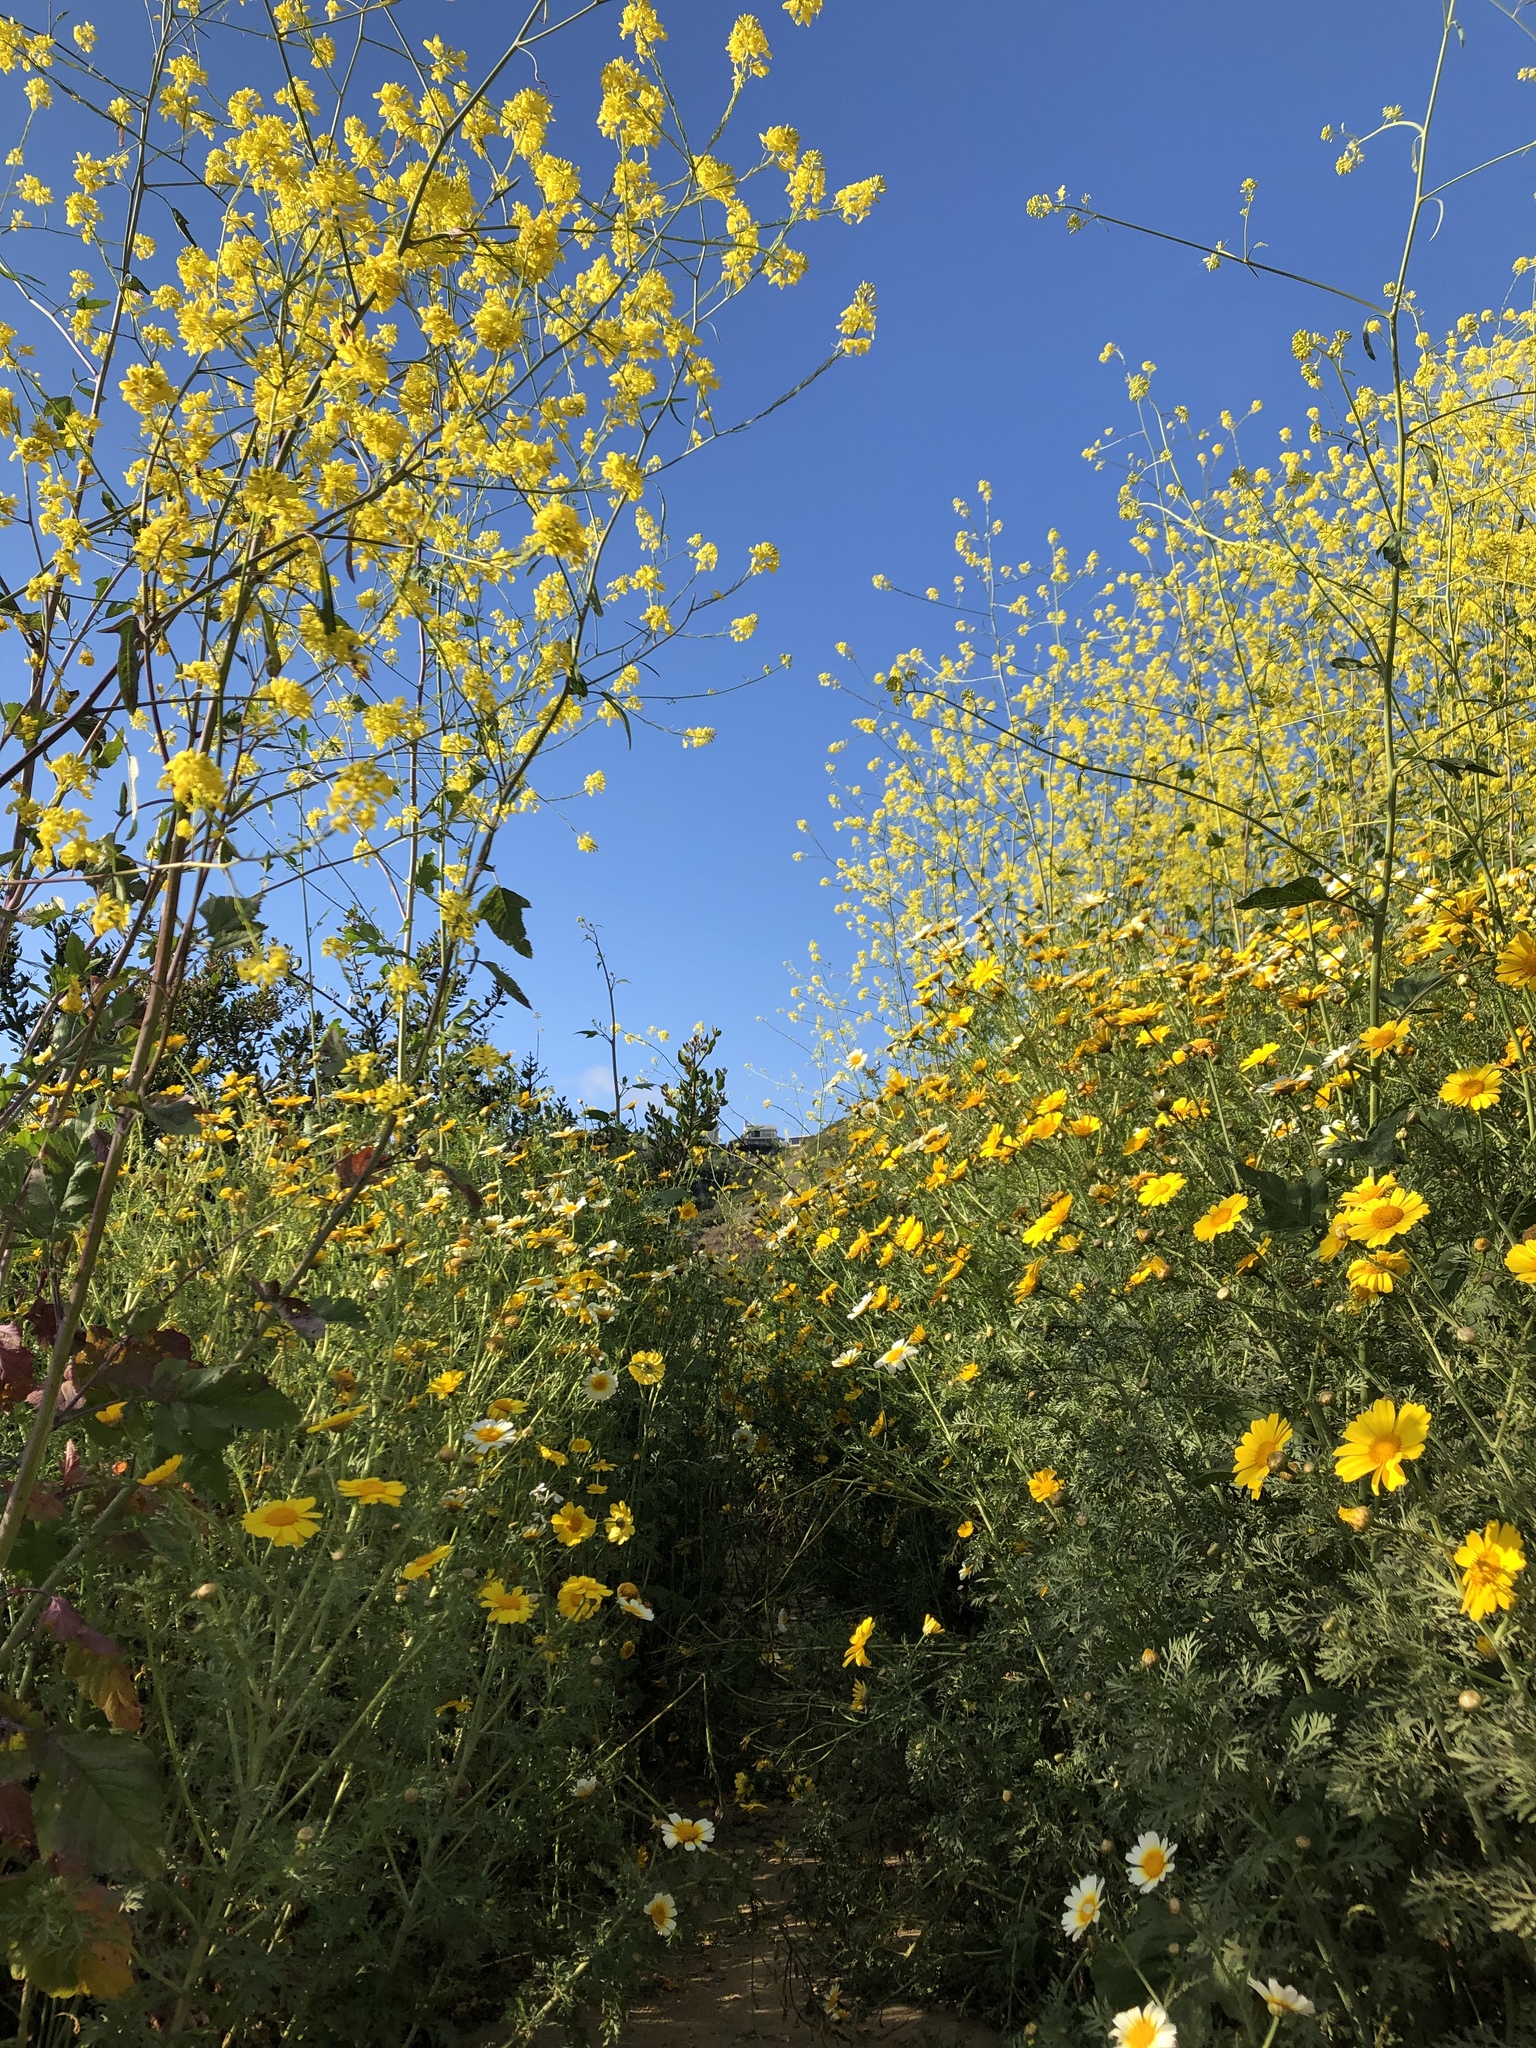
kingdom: Plantae
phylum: Tracheophyta
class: Magnoliopsida
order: Brassicales
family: Brassicaceae
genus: Brassica
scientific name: Brassica nigra
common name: Black mustard
